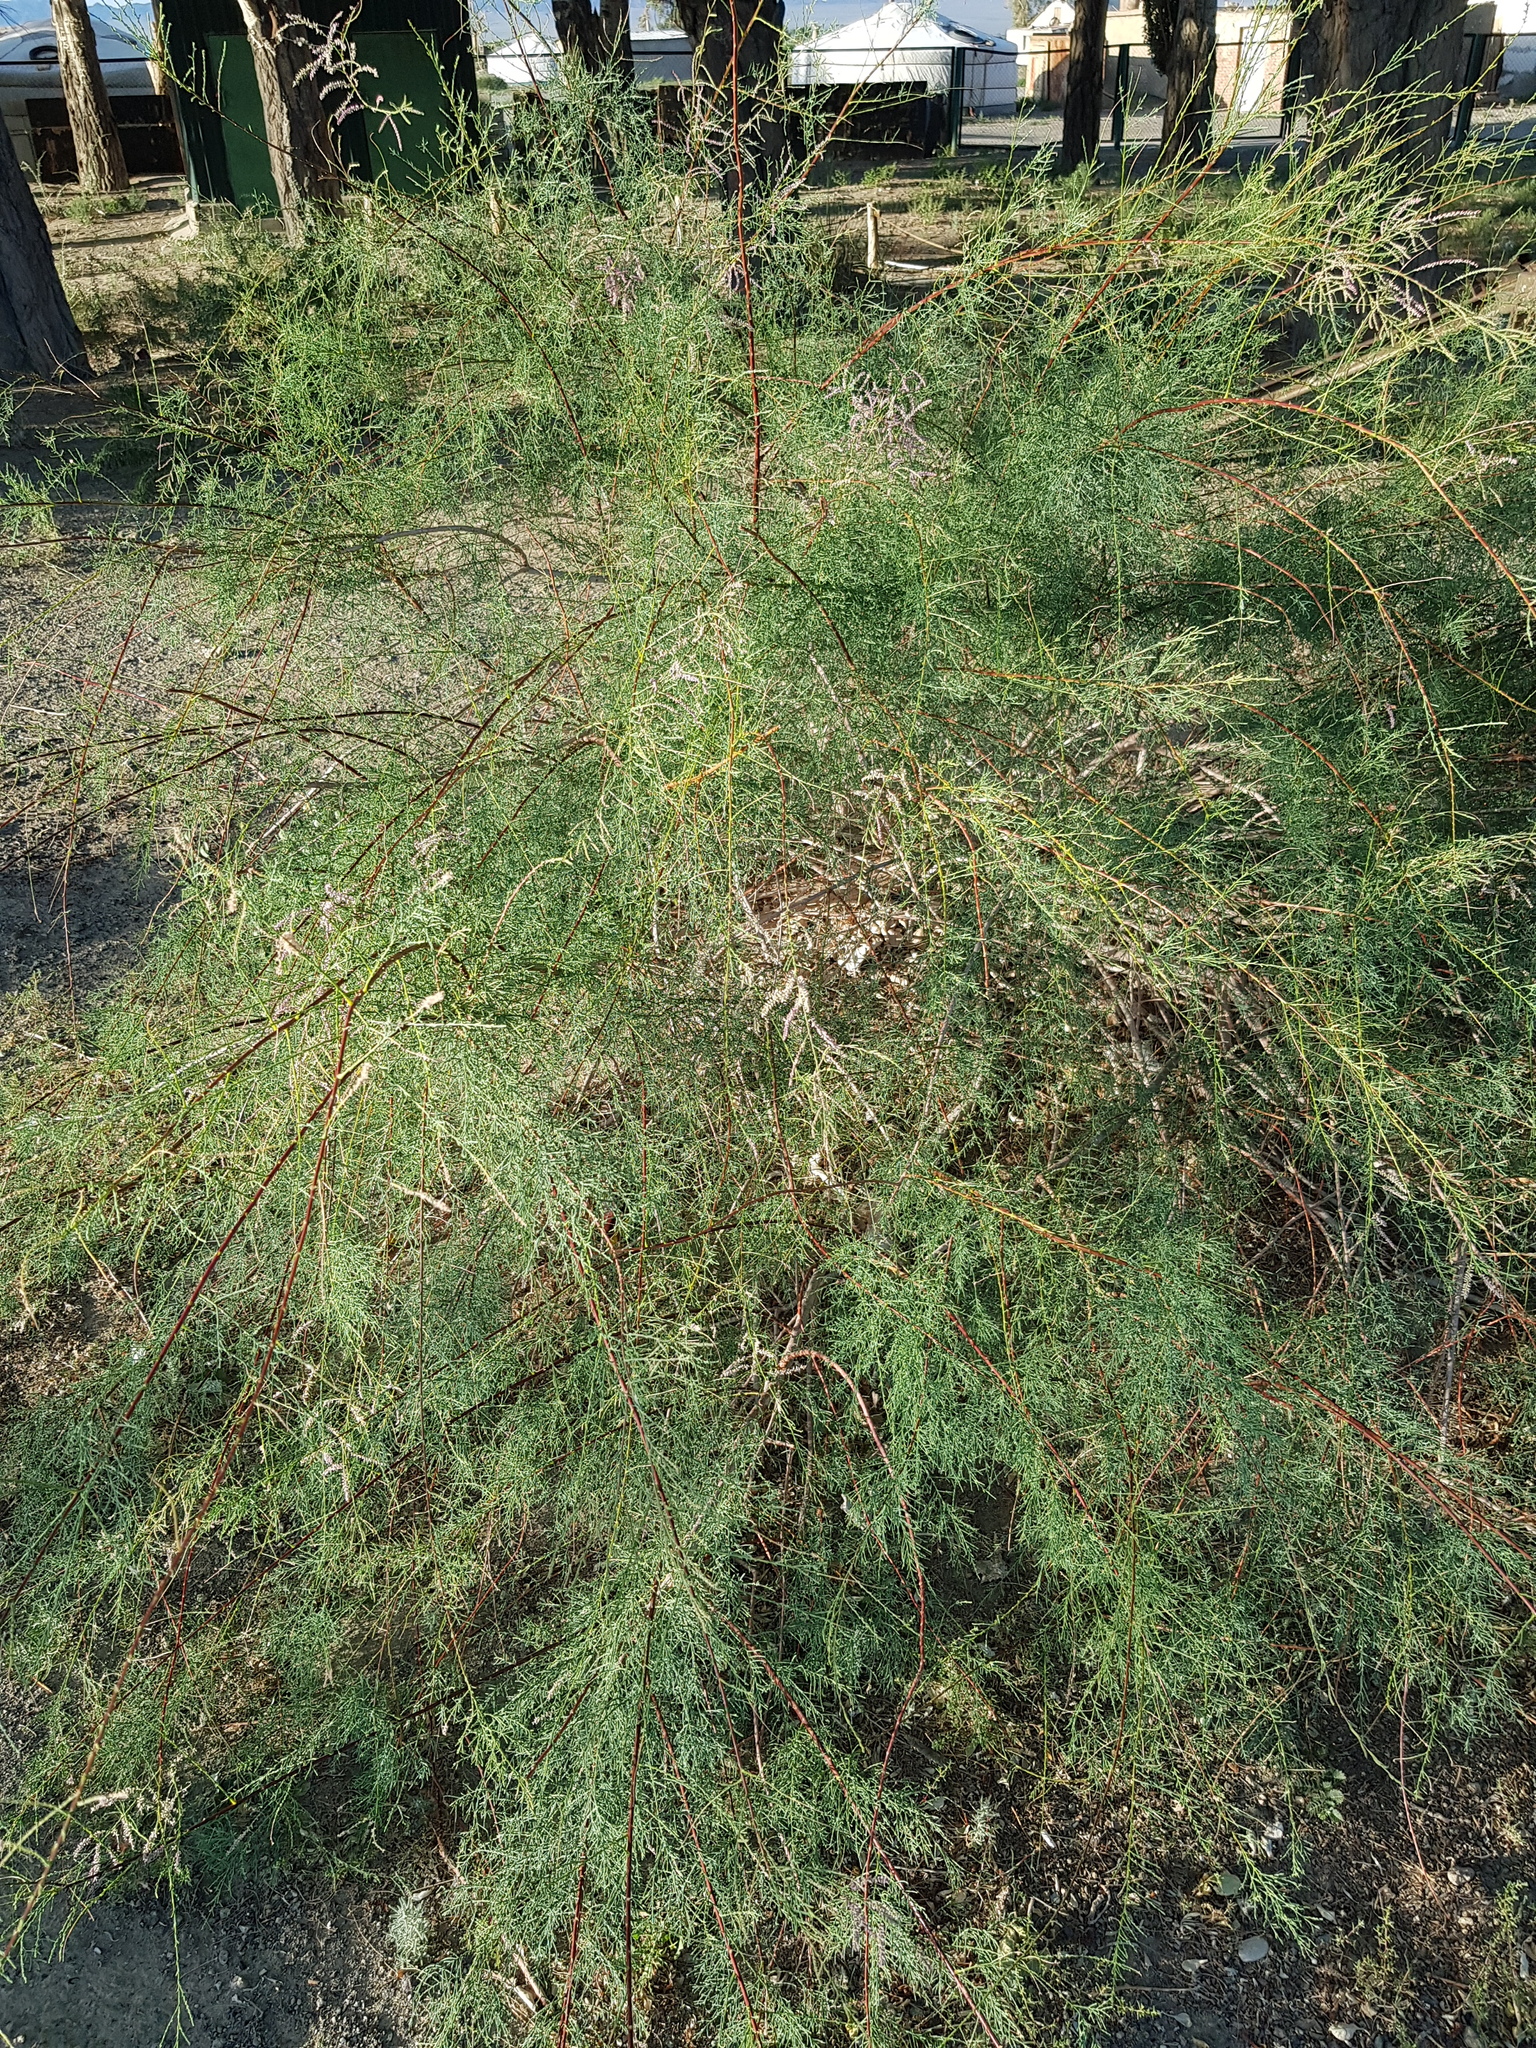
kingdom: Plantae
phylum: Tracheophyta
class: Magnoliopsida
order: Caryophyllales
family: Tamaricaceae
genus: Tamarix
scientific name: Tamarix gracilis
